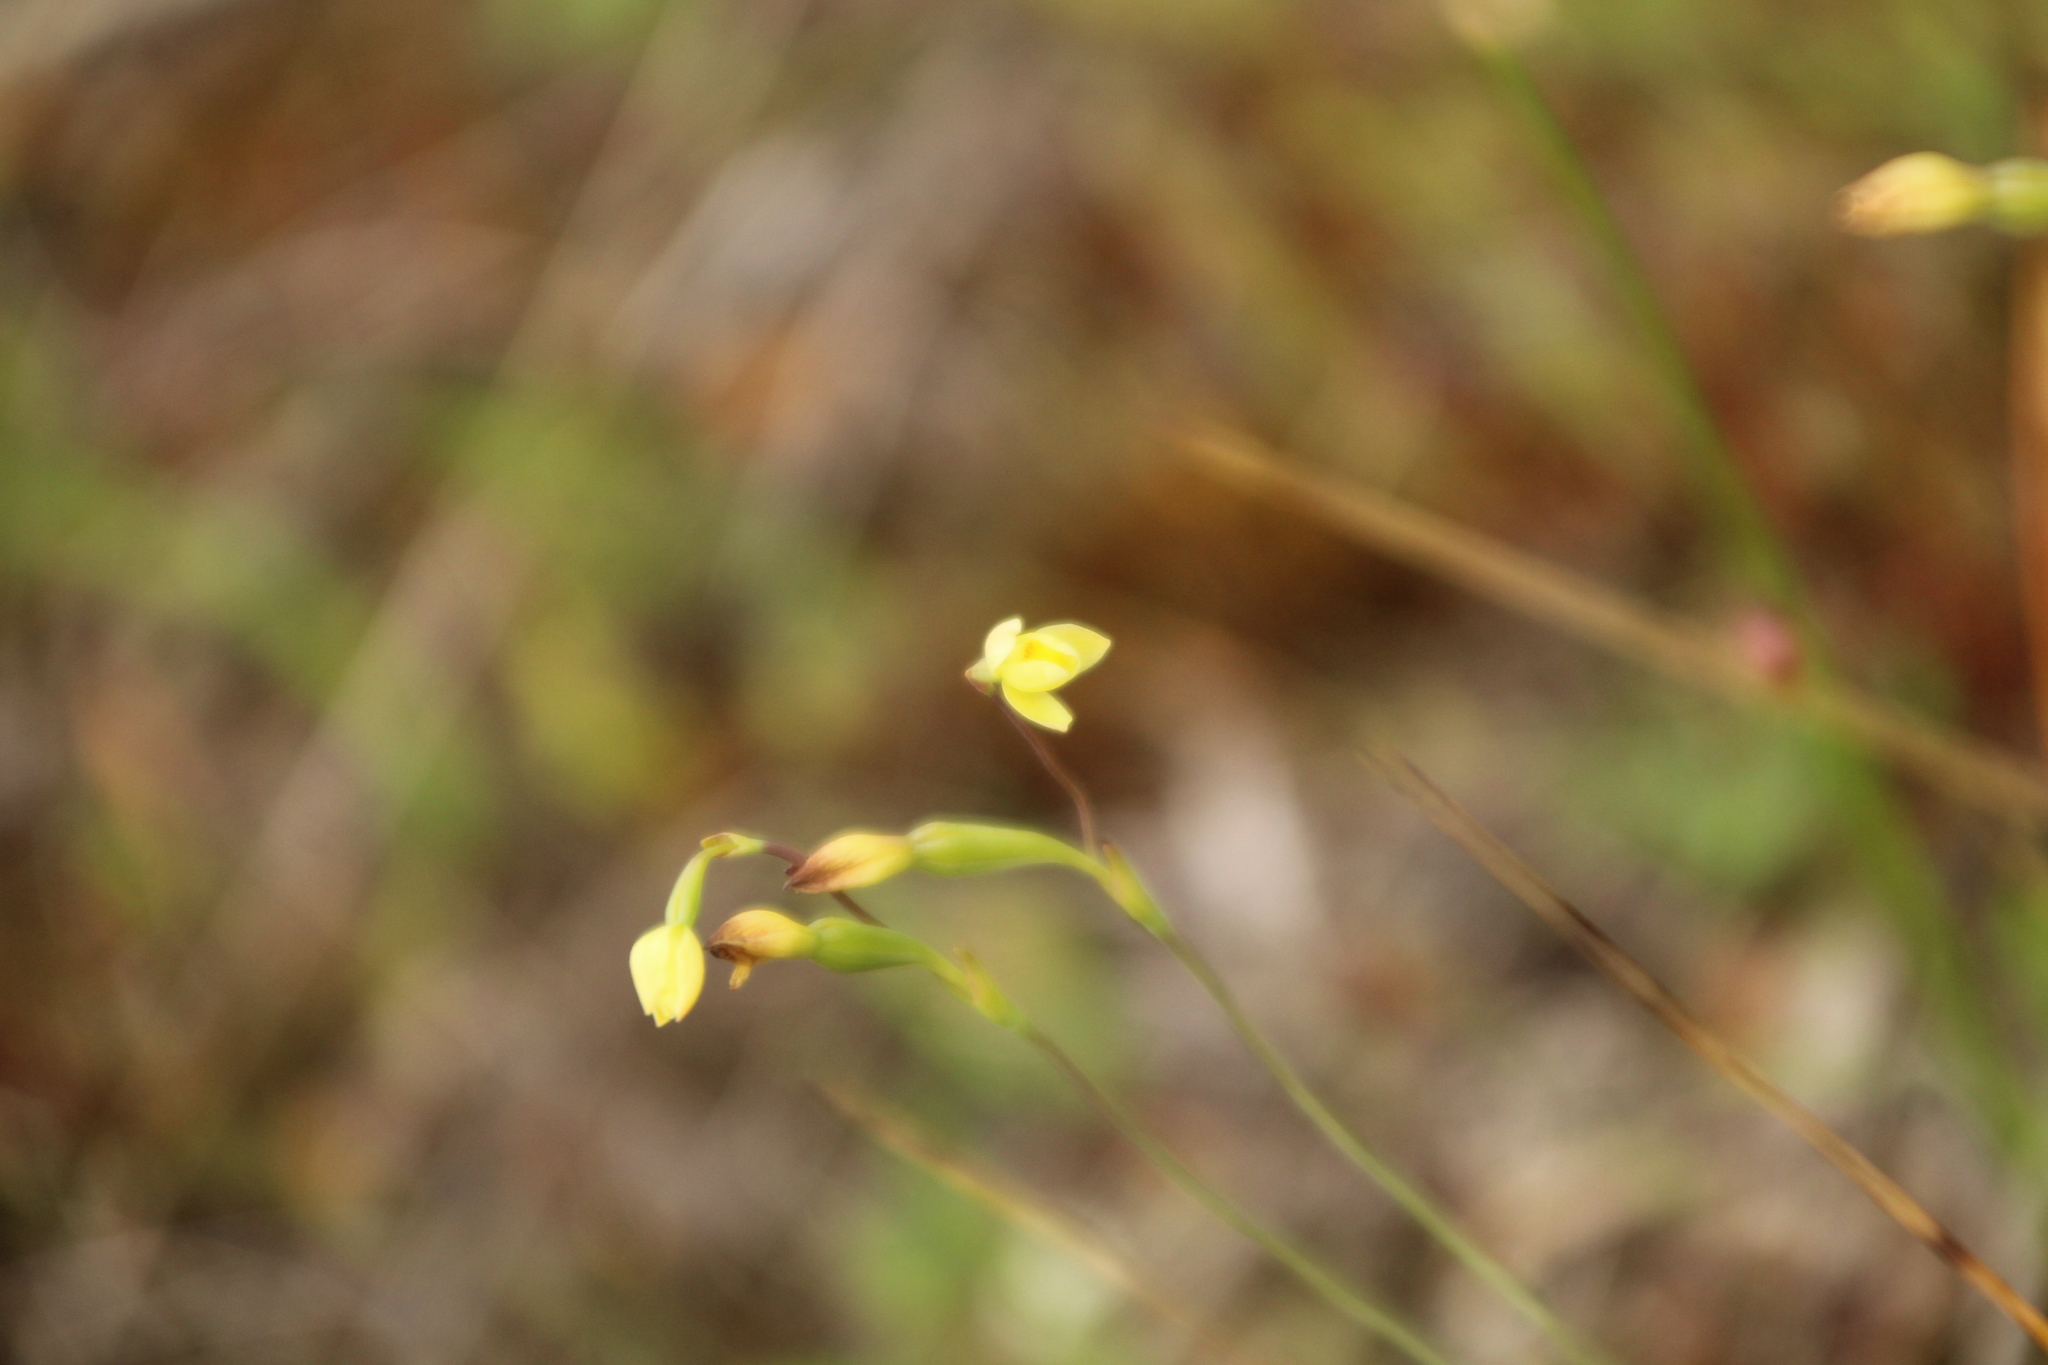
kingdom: Plantae
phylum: Tracheophyta
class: Liliopsida
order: Asparagales
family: Orchidaceae
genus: Thelymitra
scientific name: Thelymitra flexuosa
